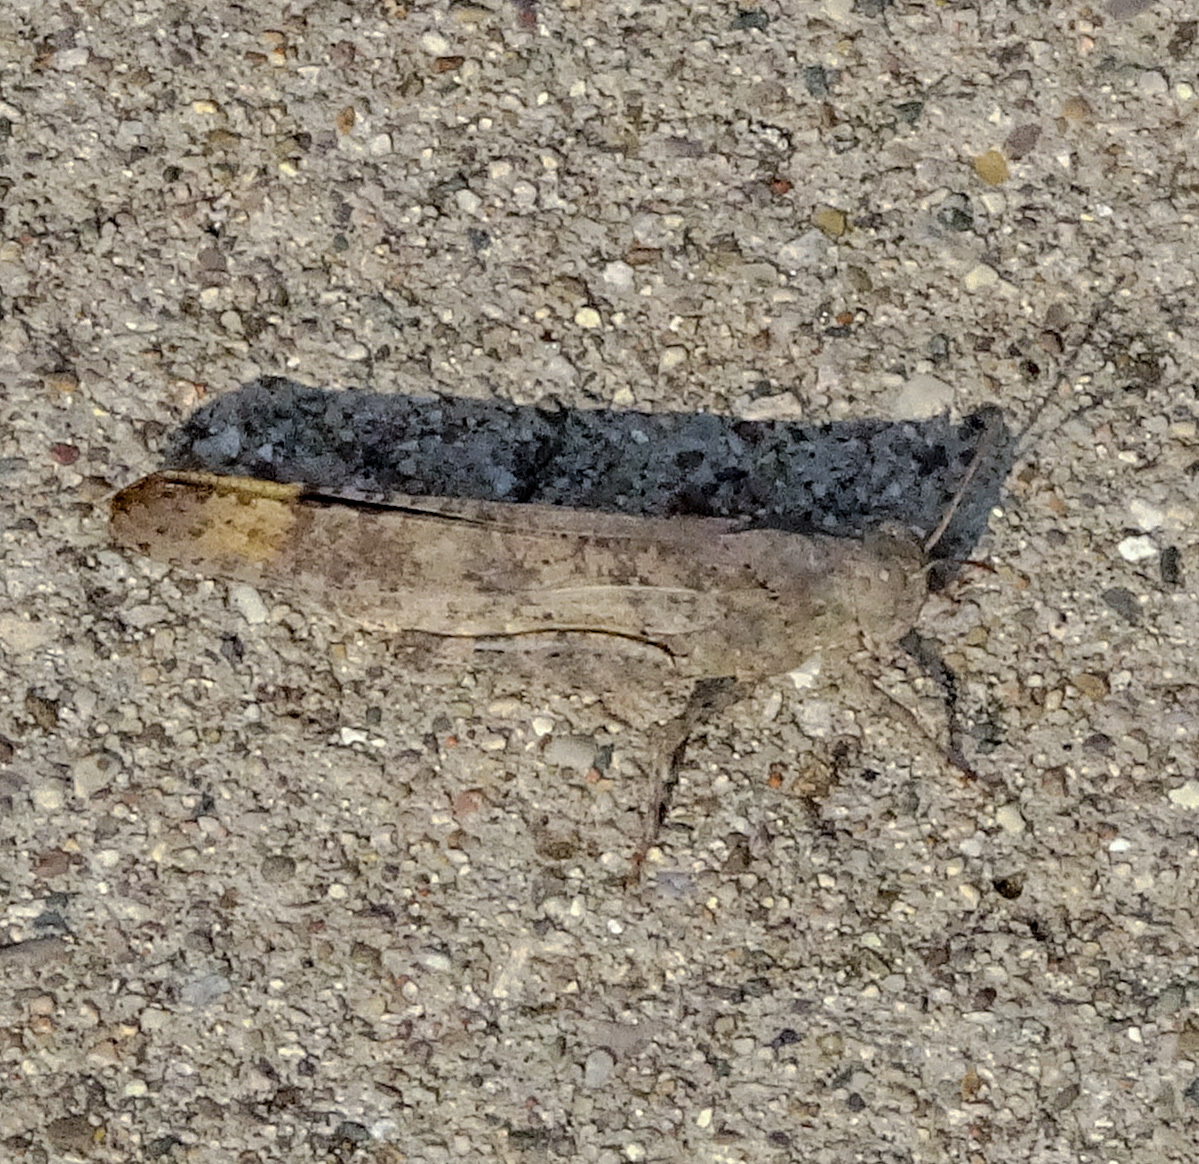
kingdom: Animalia
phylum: Arthropoda
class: Insecta
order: Orthoptera
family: Acrididae
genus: Dissosteira
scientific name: Dissosteira carolina
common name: Carolina grasshopper
